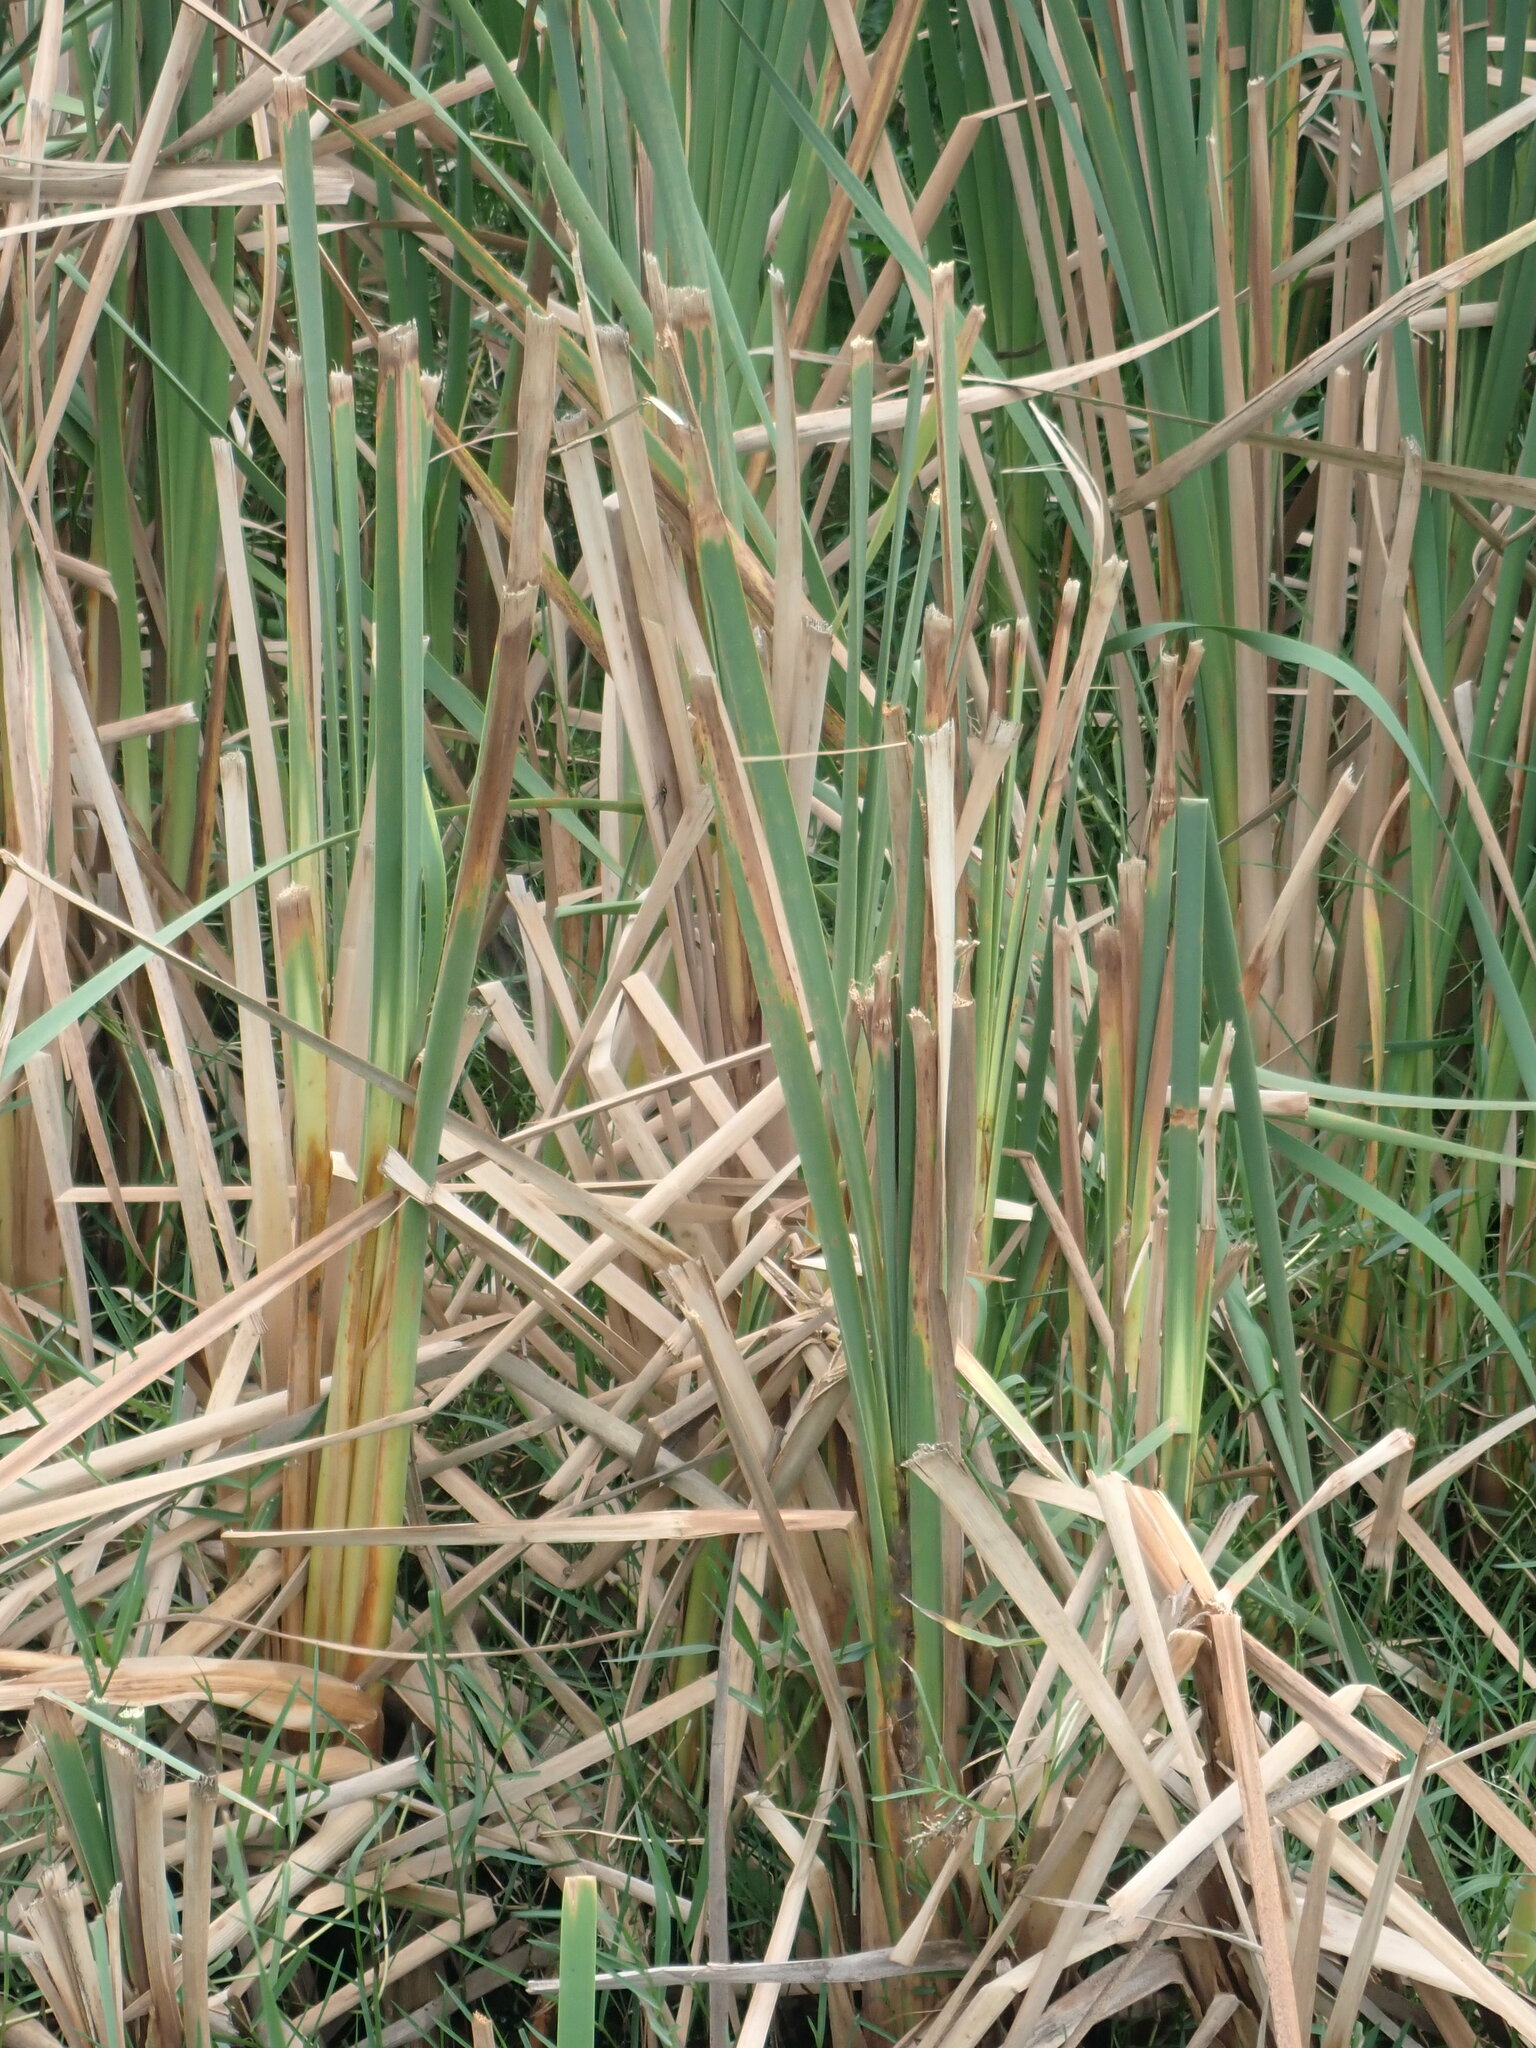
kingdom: Plantae
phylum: Tracheophyta
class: Liliopsida
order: Poales
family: Typhaceae
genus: Typha
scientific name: Typha orientalis
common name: Bullrush
